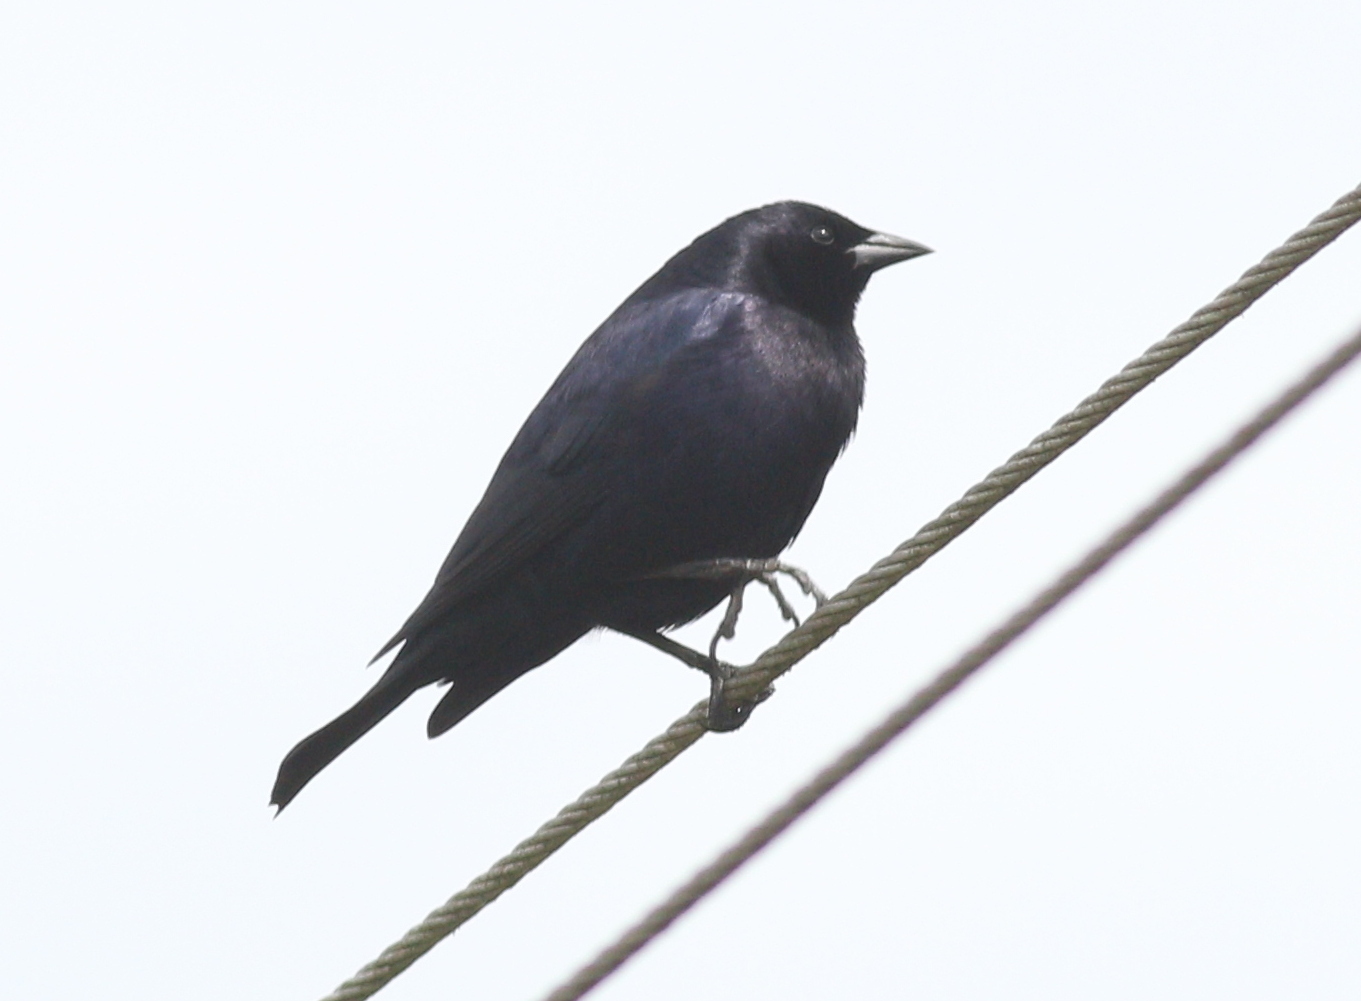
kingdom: Animalia
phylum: Chordata
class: Aves
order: Passeriformes
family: Icteridae
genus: Molothrus
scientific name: Molothrus bonariensis
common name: Shiny cowbird
